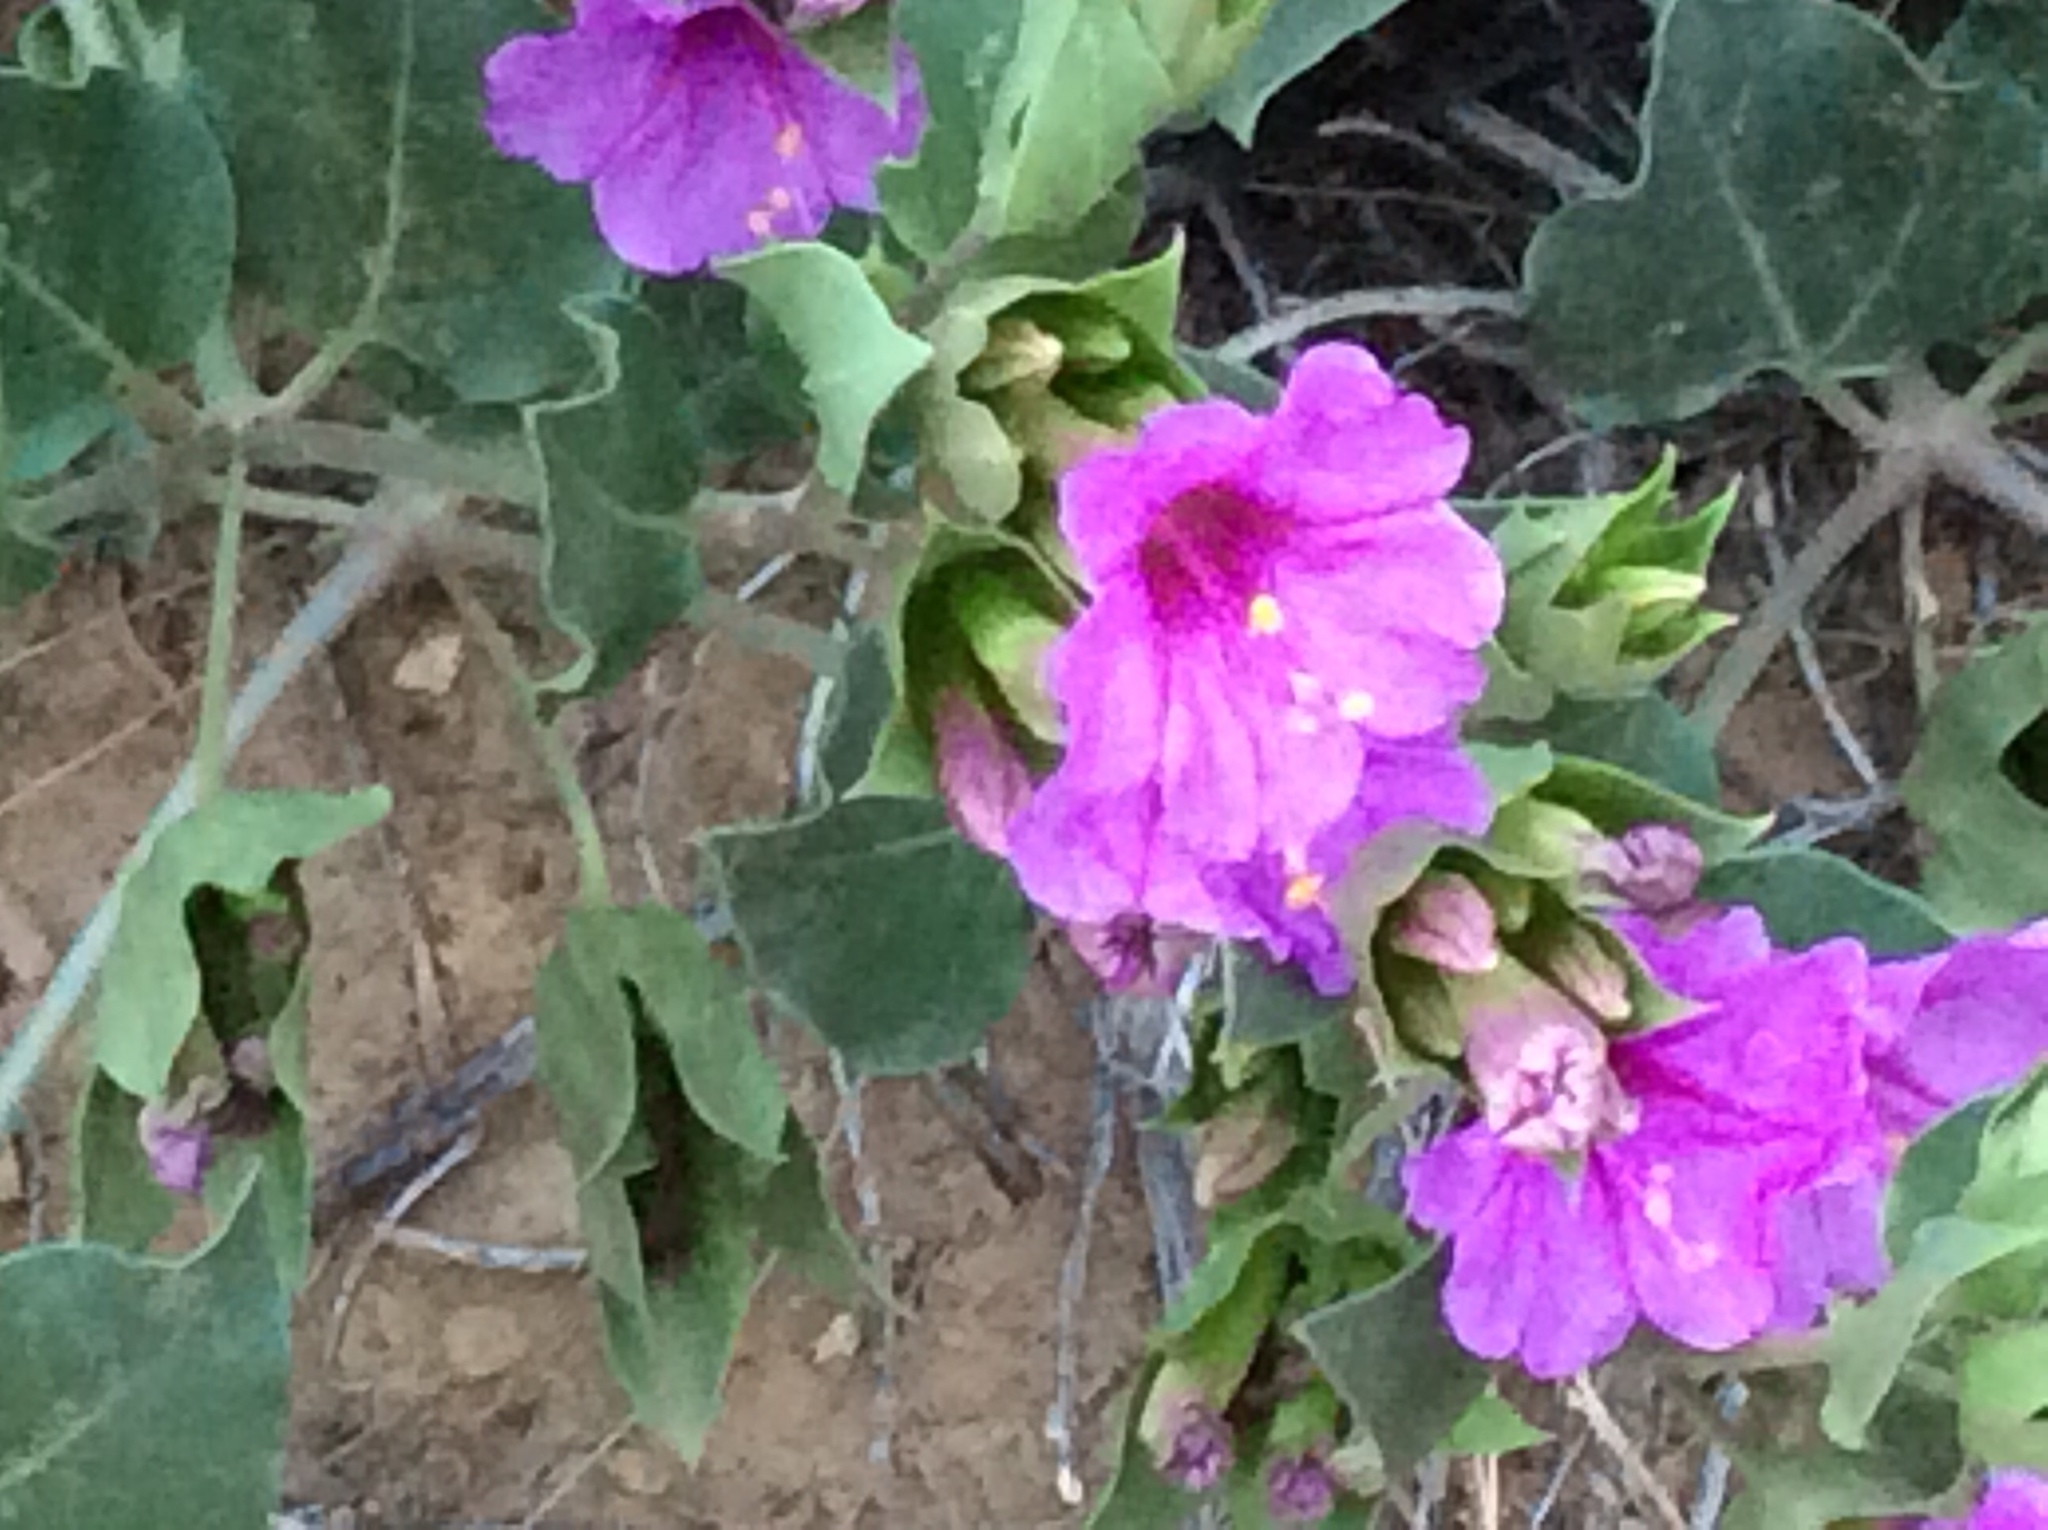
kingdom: Plantae
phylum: Tracheophyta
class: Magnoliopsida
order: Caryophyllales
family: Nyctaginaceae
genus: Mirabilis
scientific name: Mirabilis multiflora
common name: Froebel's four-o'clock
